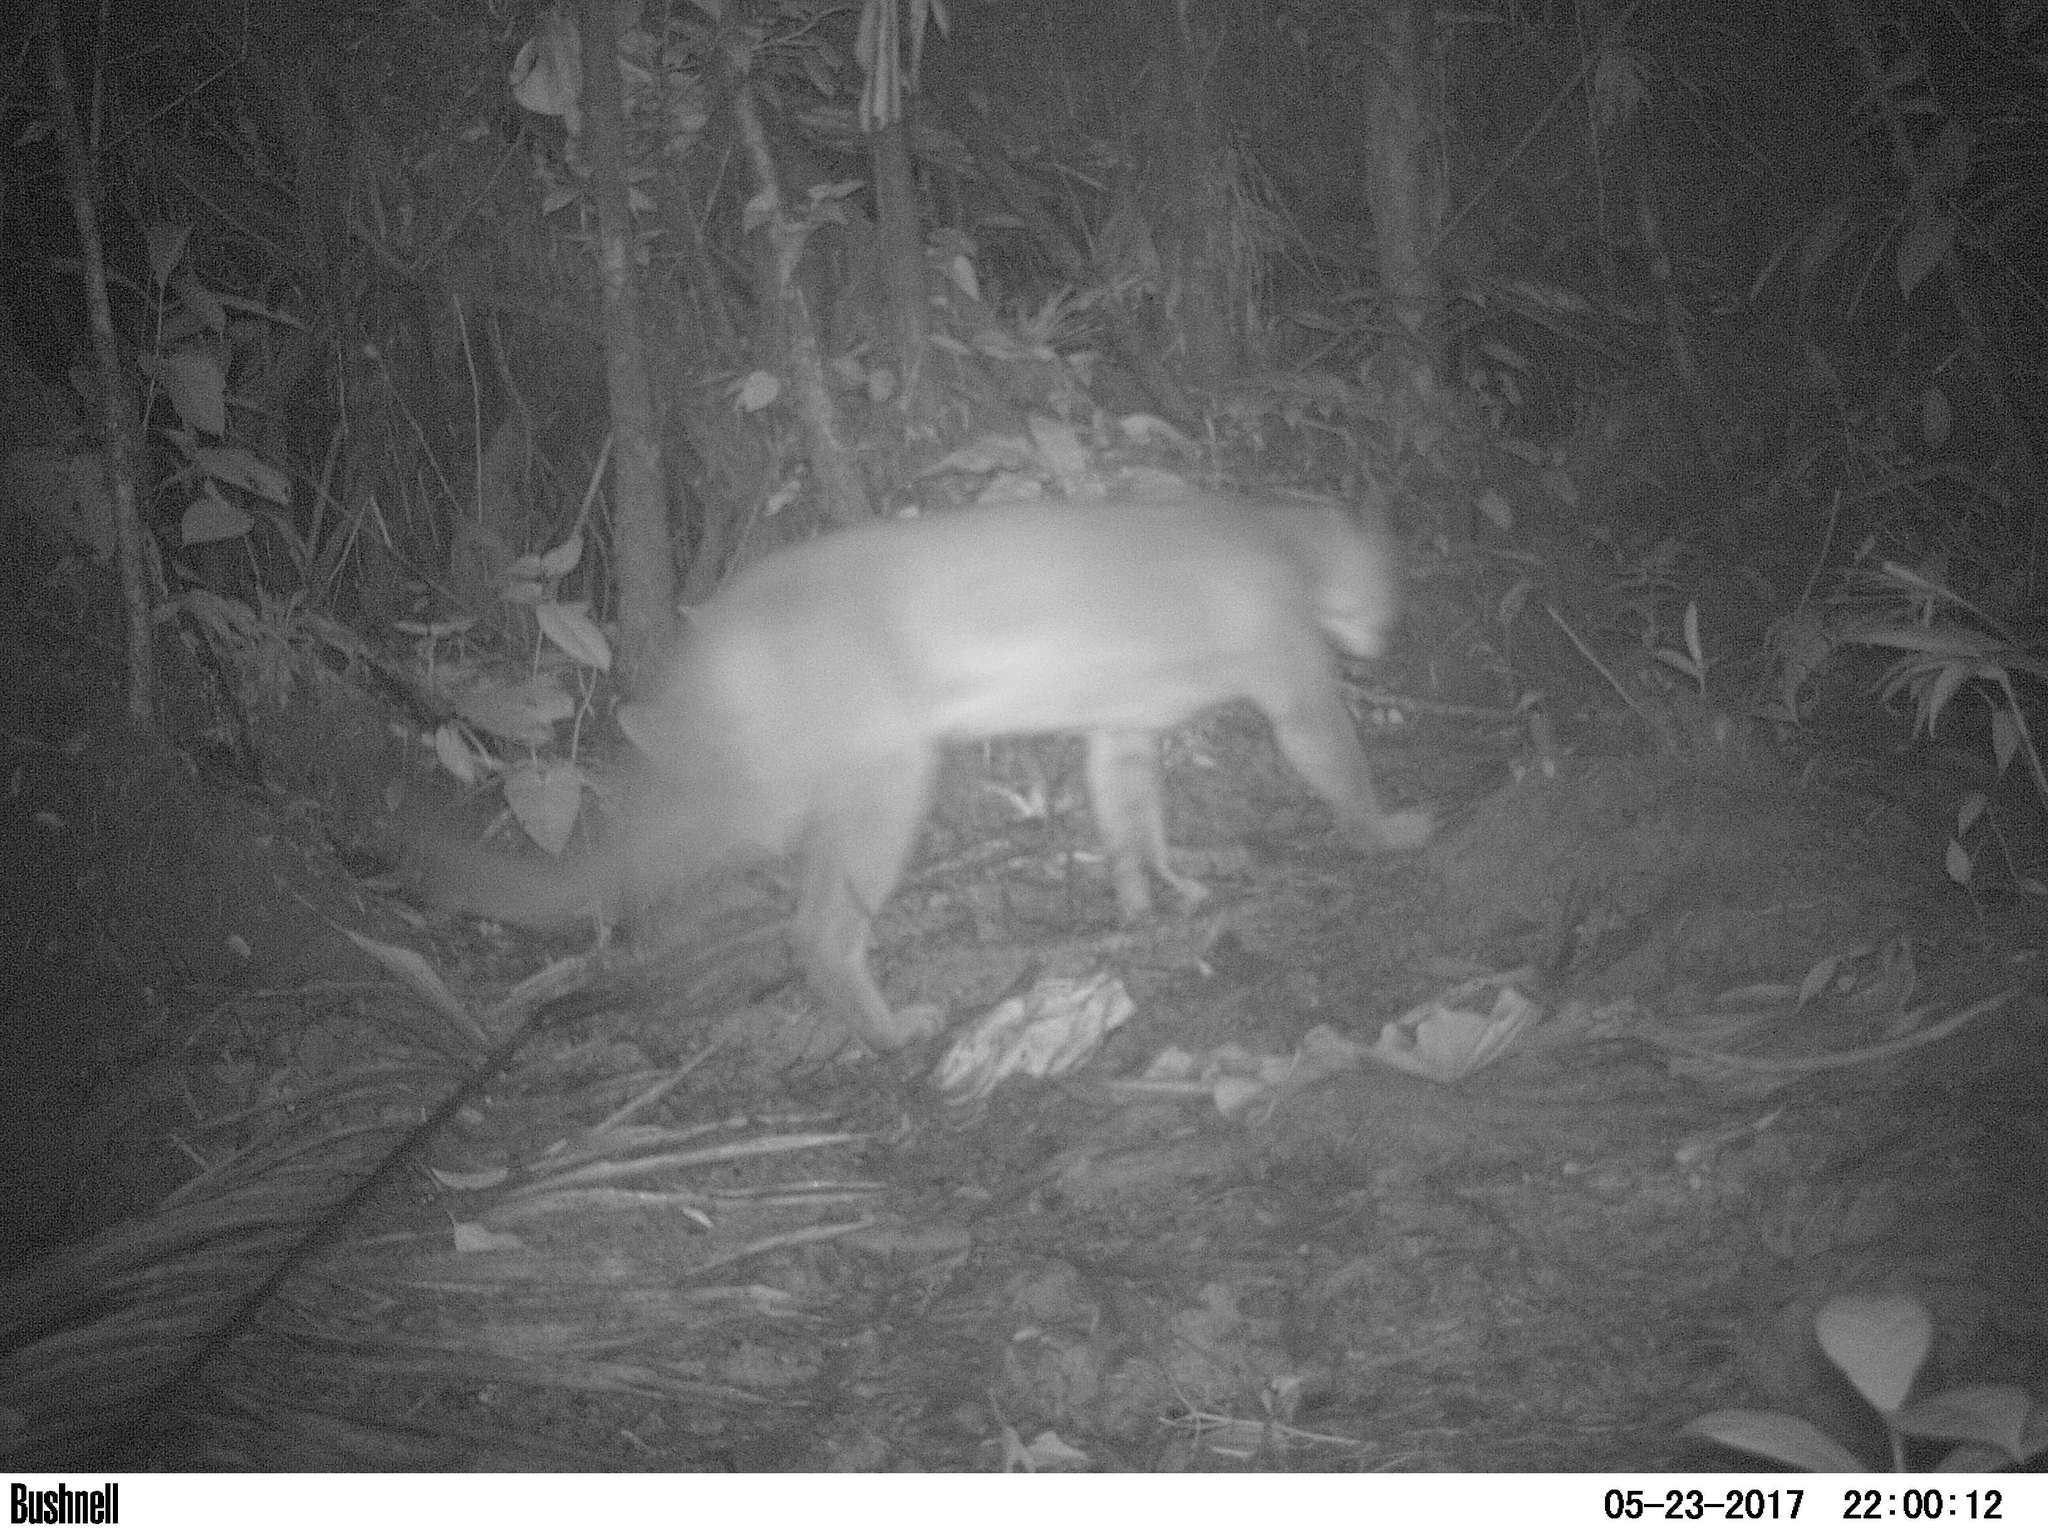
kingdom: Animalia
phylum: Chordata
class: Mammalia
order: Carnivora
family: Felidae
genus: Puma
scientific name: Puma concolor
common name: Puma
